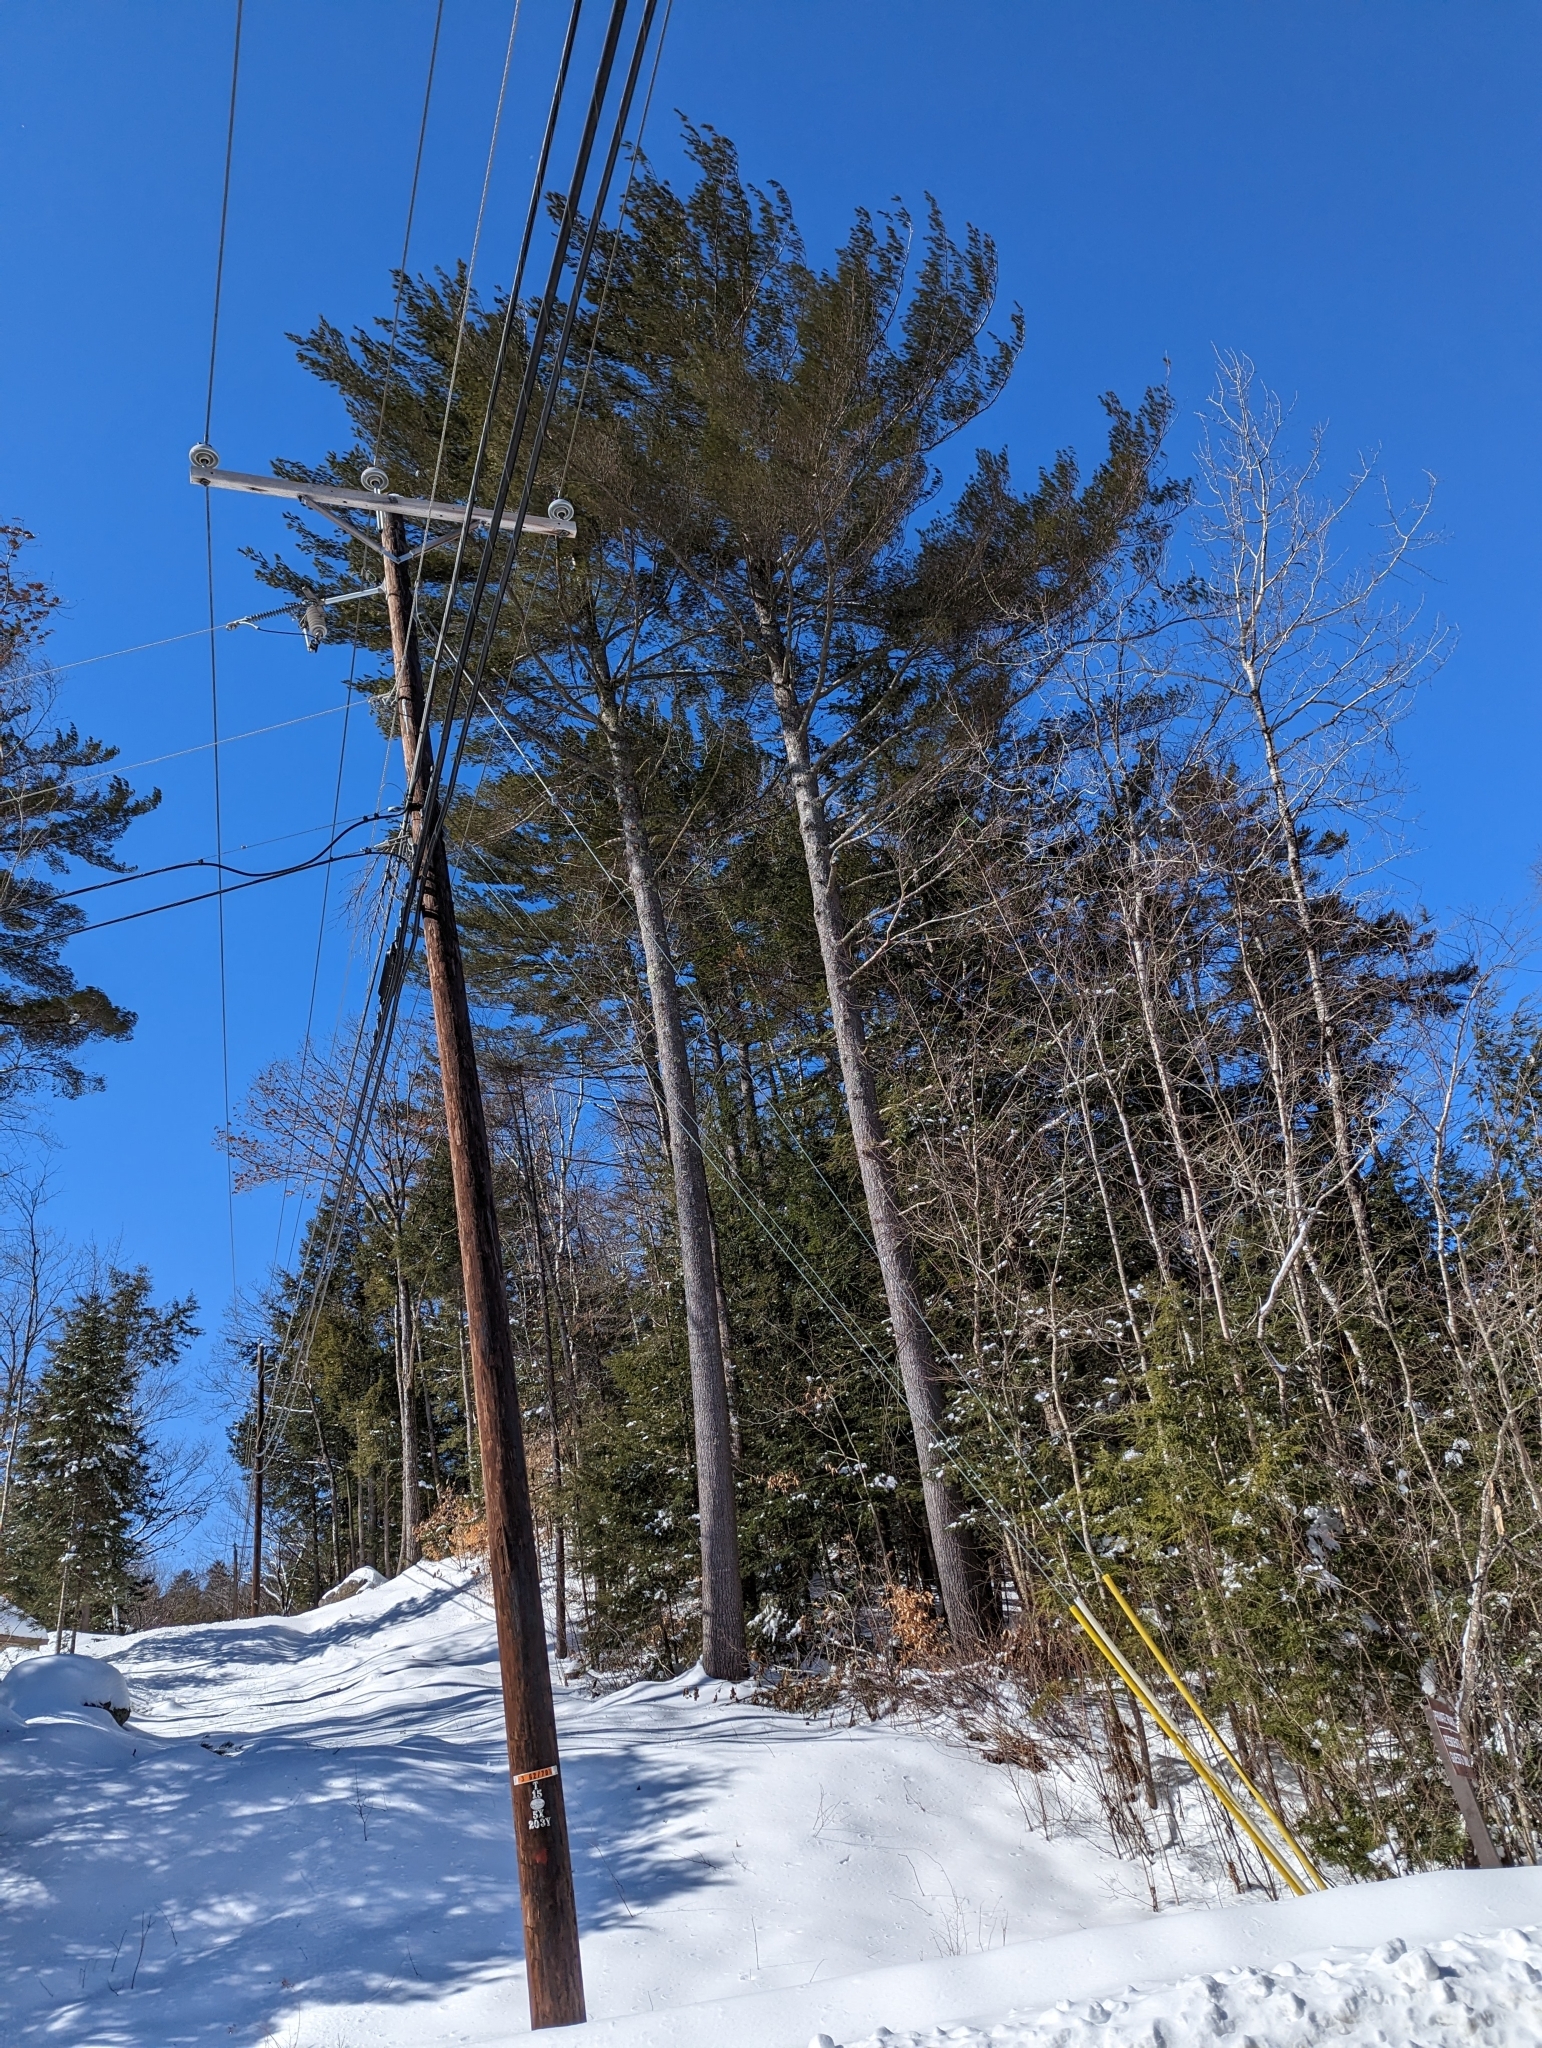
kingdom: Plantae
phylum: Tracheophyta
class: Pinopsida
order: Pinales
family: Pinaceae
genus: Pinus
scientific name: Pinus strobus
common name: Weymouth pine
